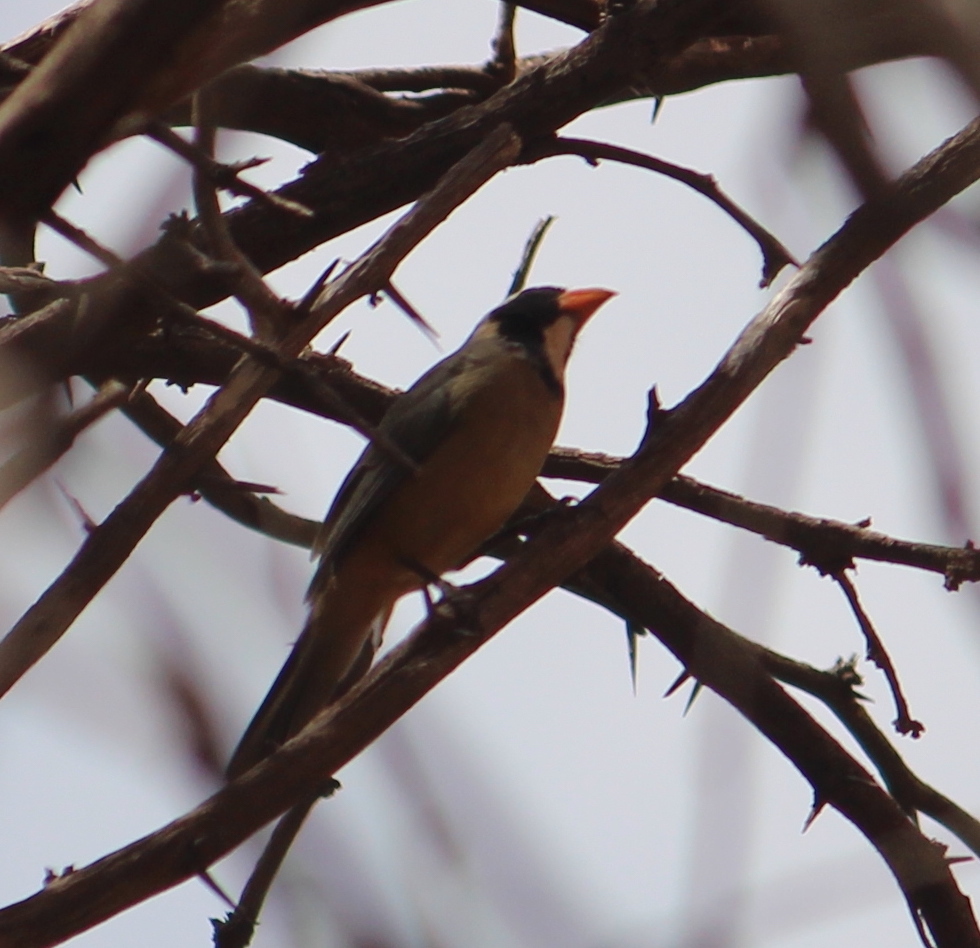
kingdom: Animalia
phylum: Chordata
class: Aves
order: Passeriformes
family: Thraupidae
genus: Saltator
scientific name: Saltator aurantiirostris
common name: Golden-billed saltator
